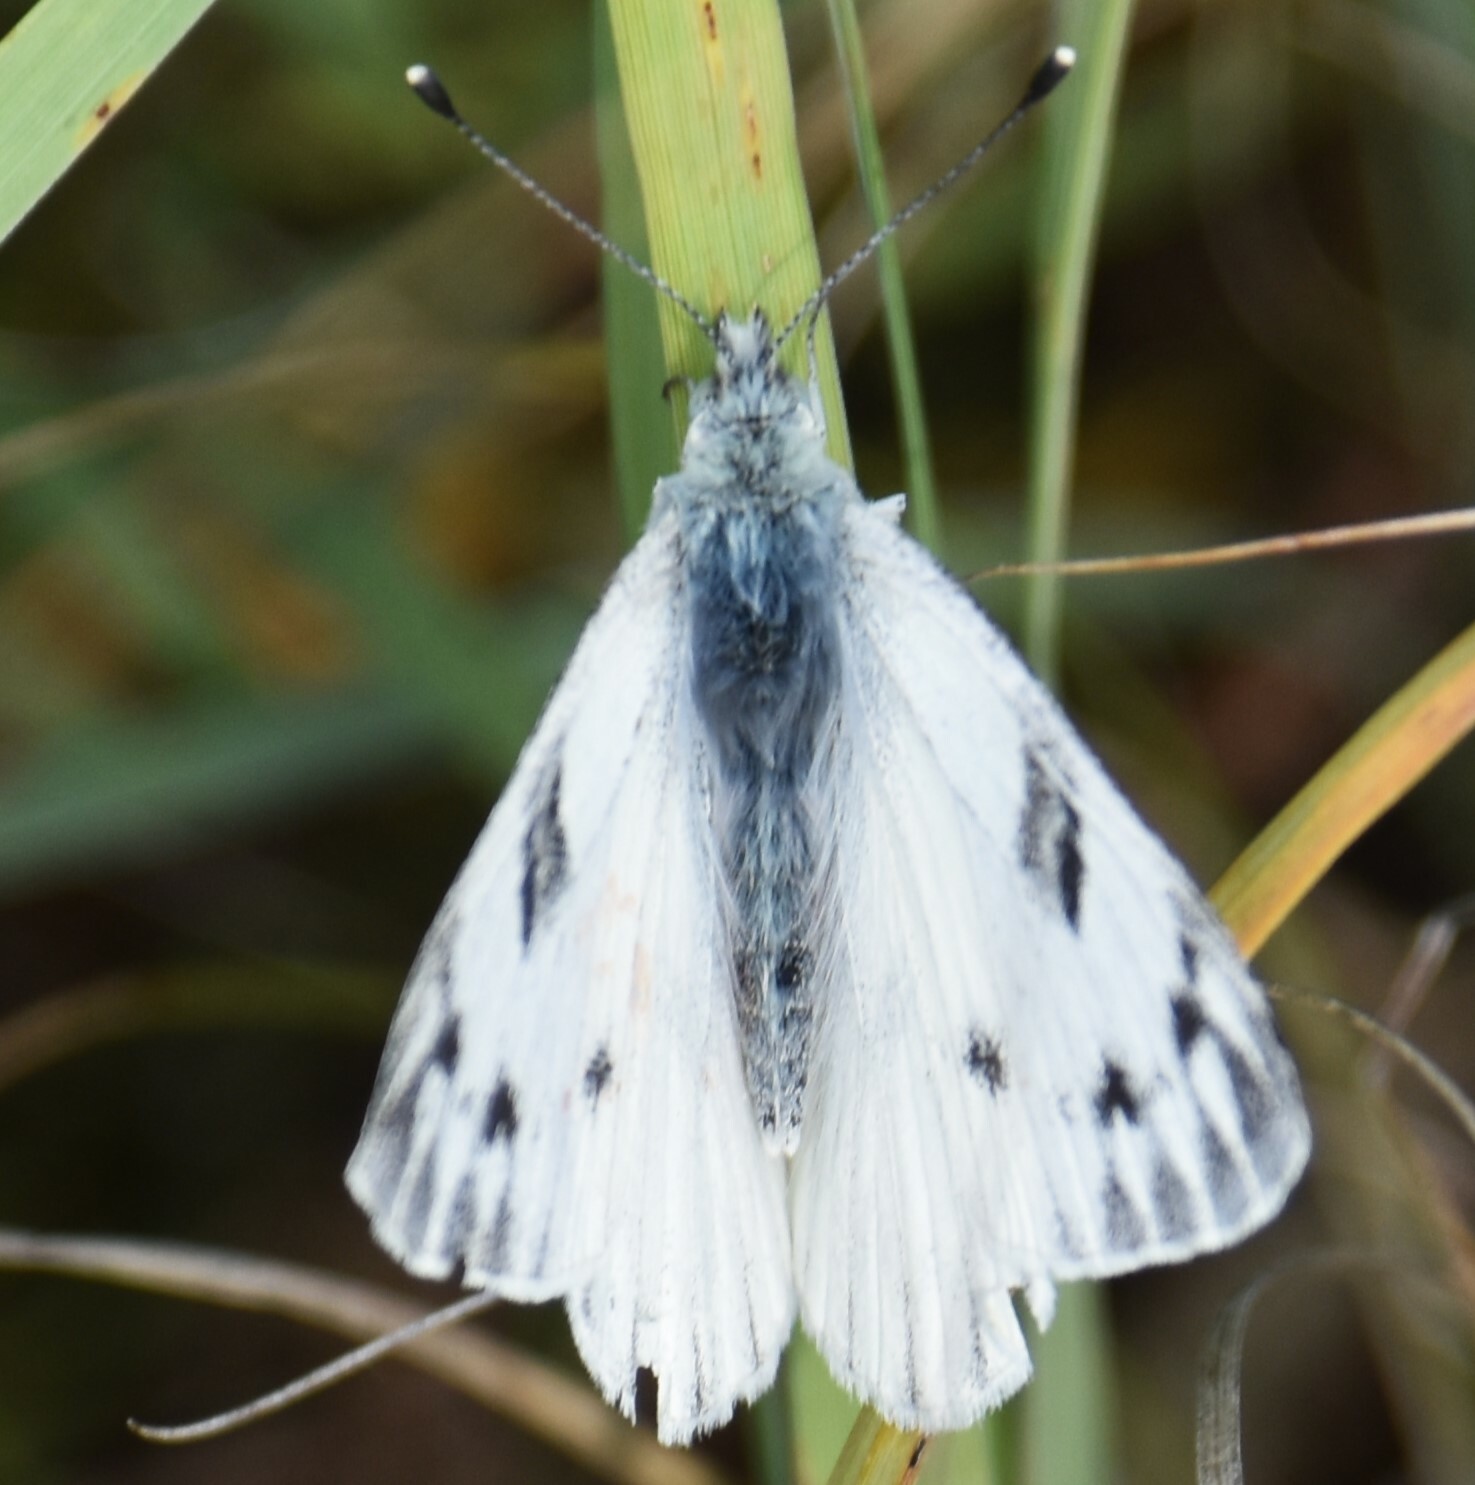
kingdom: Animalia
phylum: Arthropoda
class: Insecta
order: Lepidoptera
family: Pieridae
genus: Pontia
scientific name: Pontia occidentalis
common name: Western white
